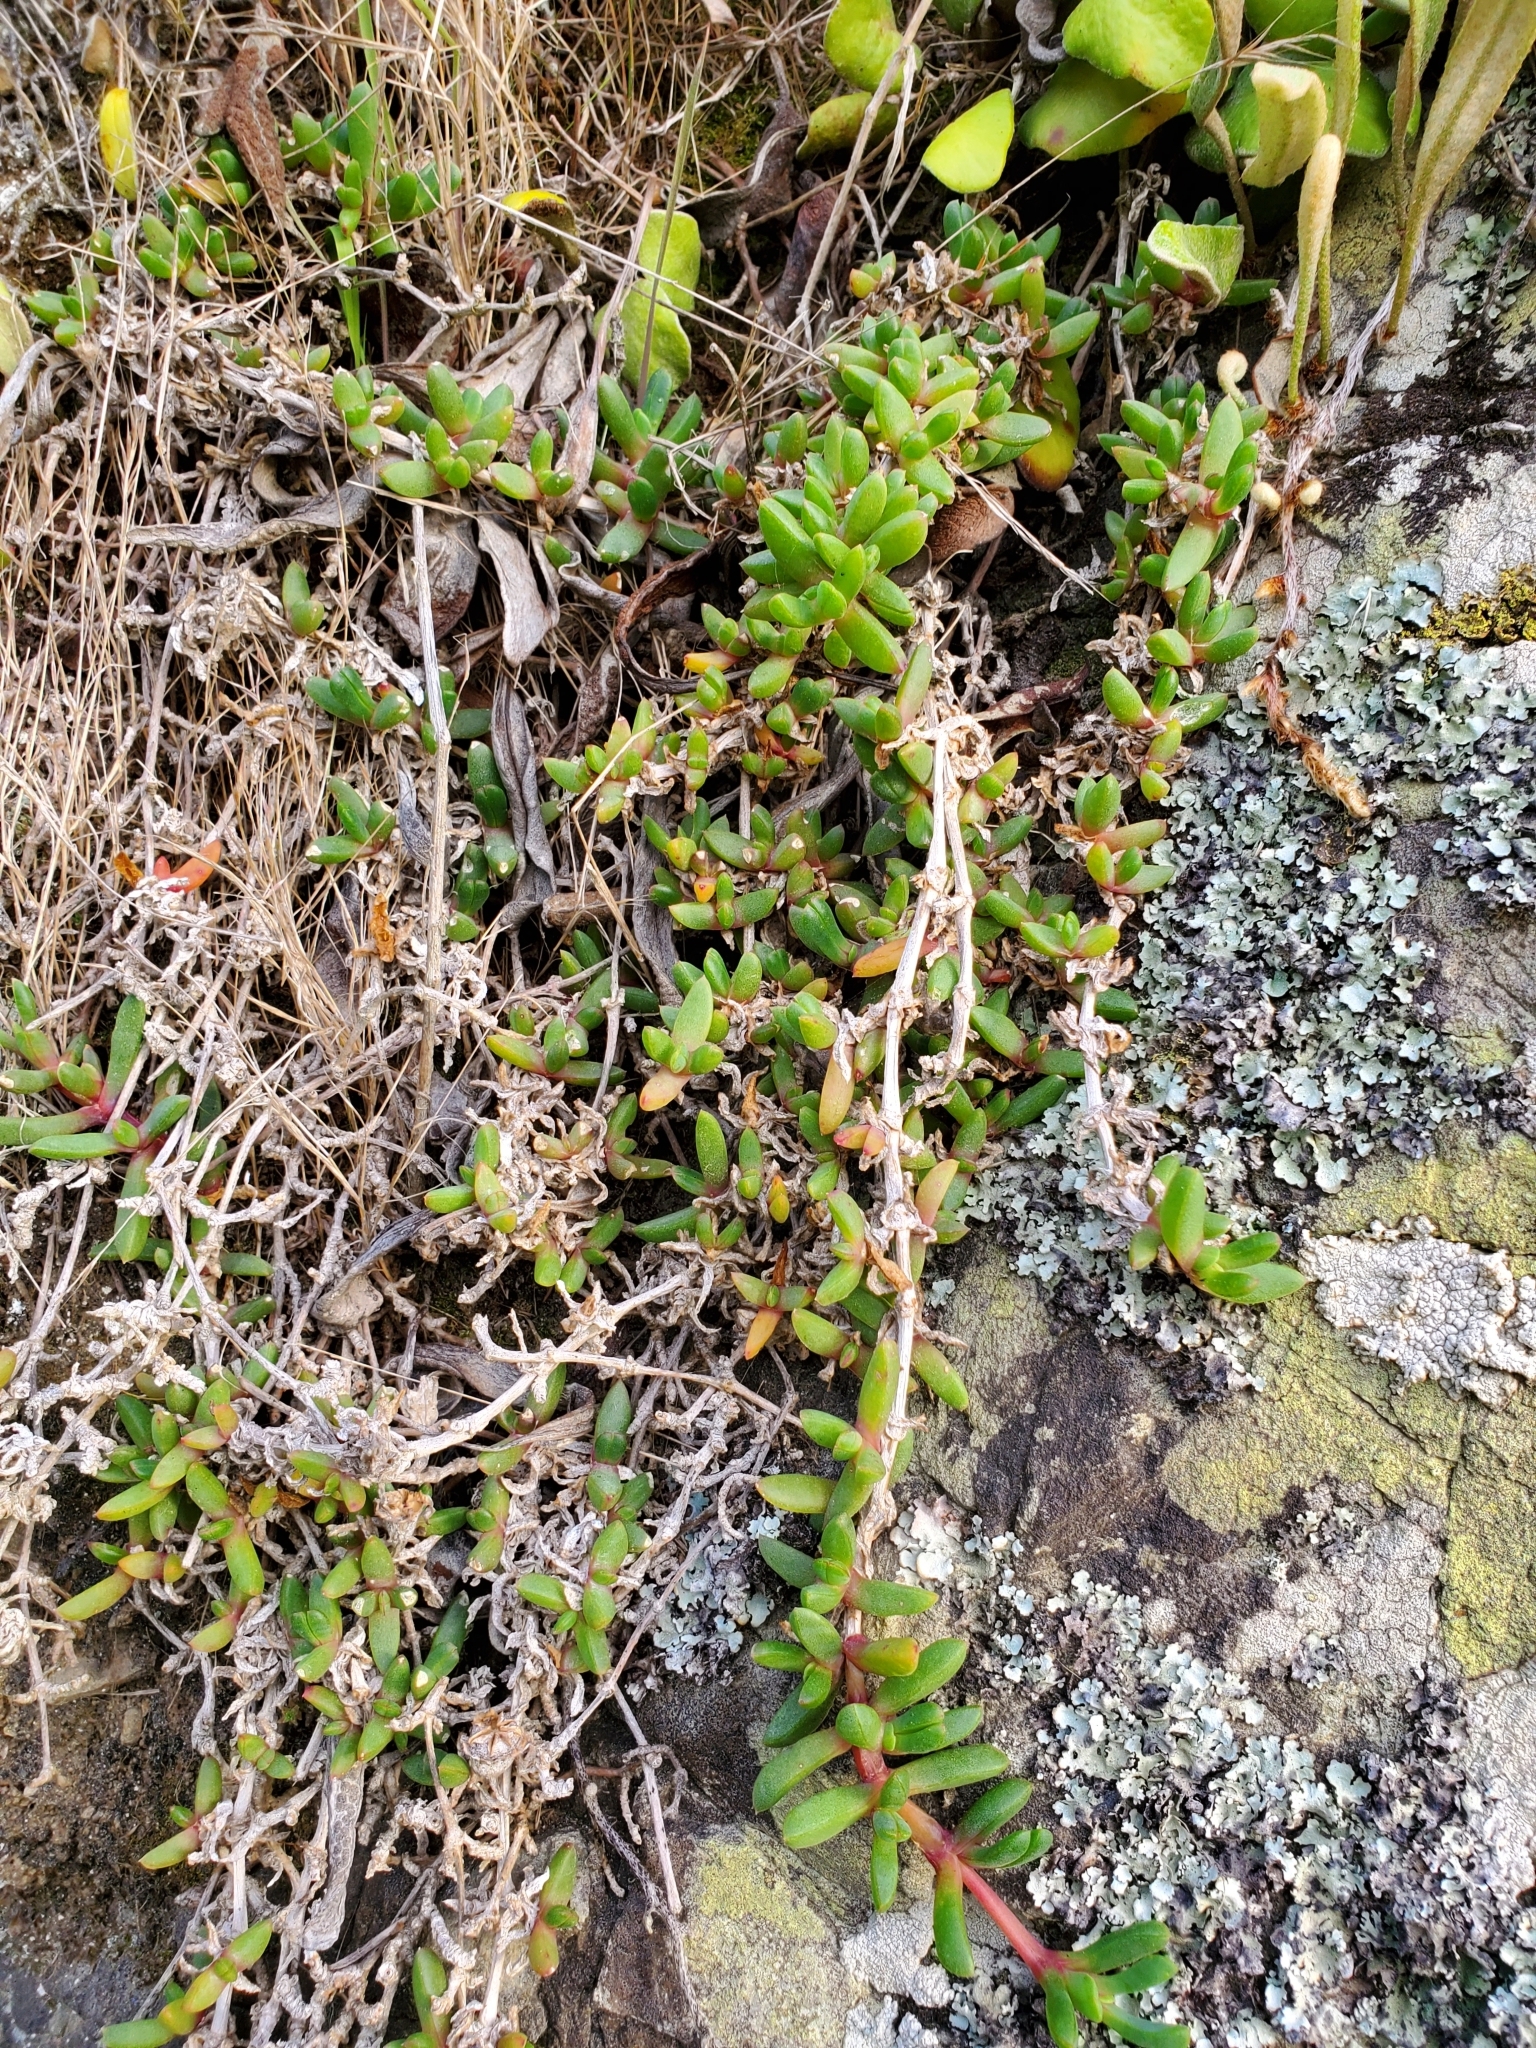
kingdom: Plantae
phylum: Tracheophyta
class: Magnoliopsida
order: Caryophyllales
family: Aizoaceae
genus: Disphyma
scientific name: Disphyma australe
